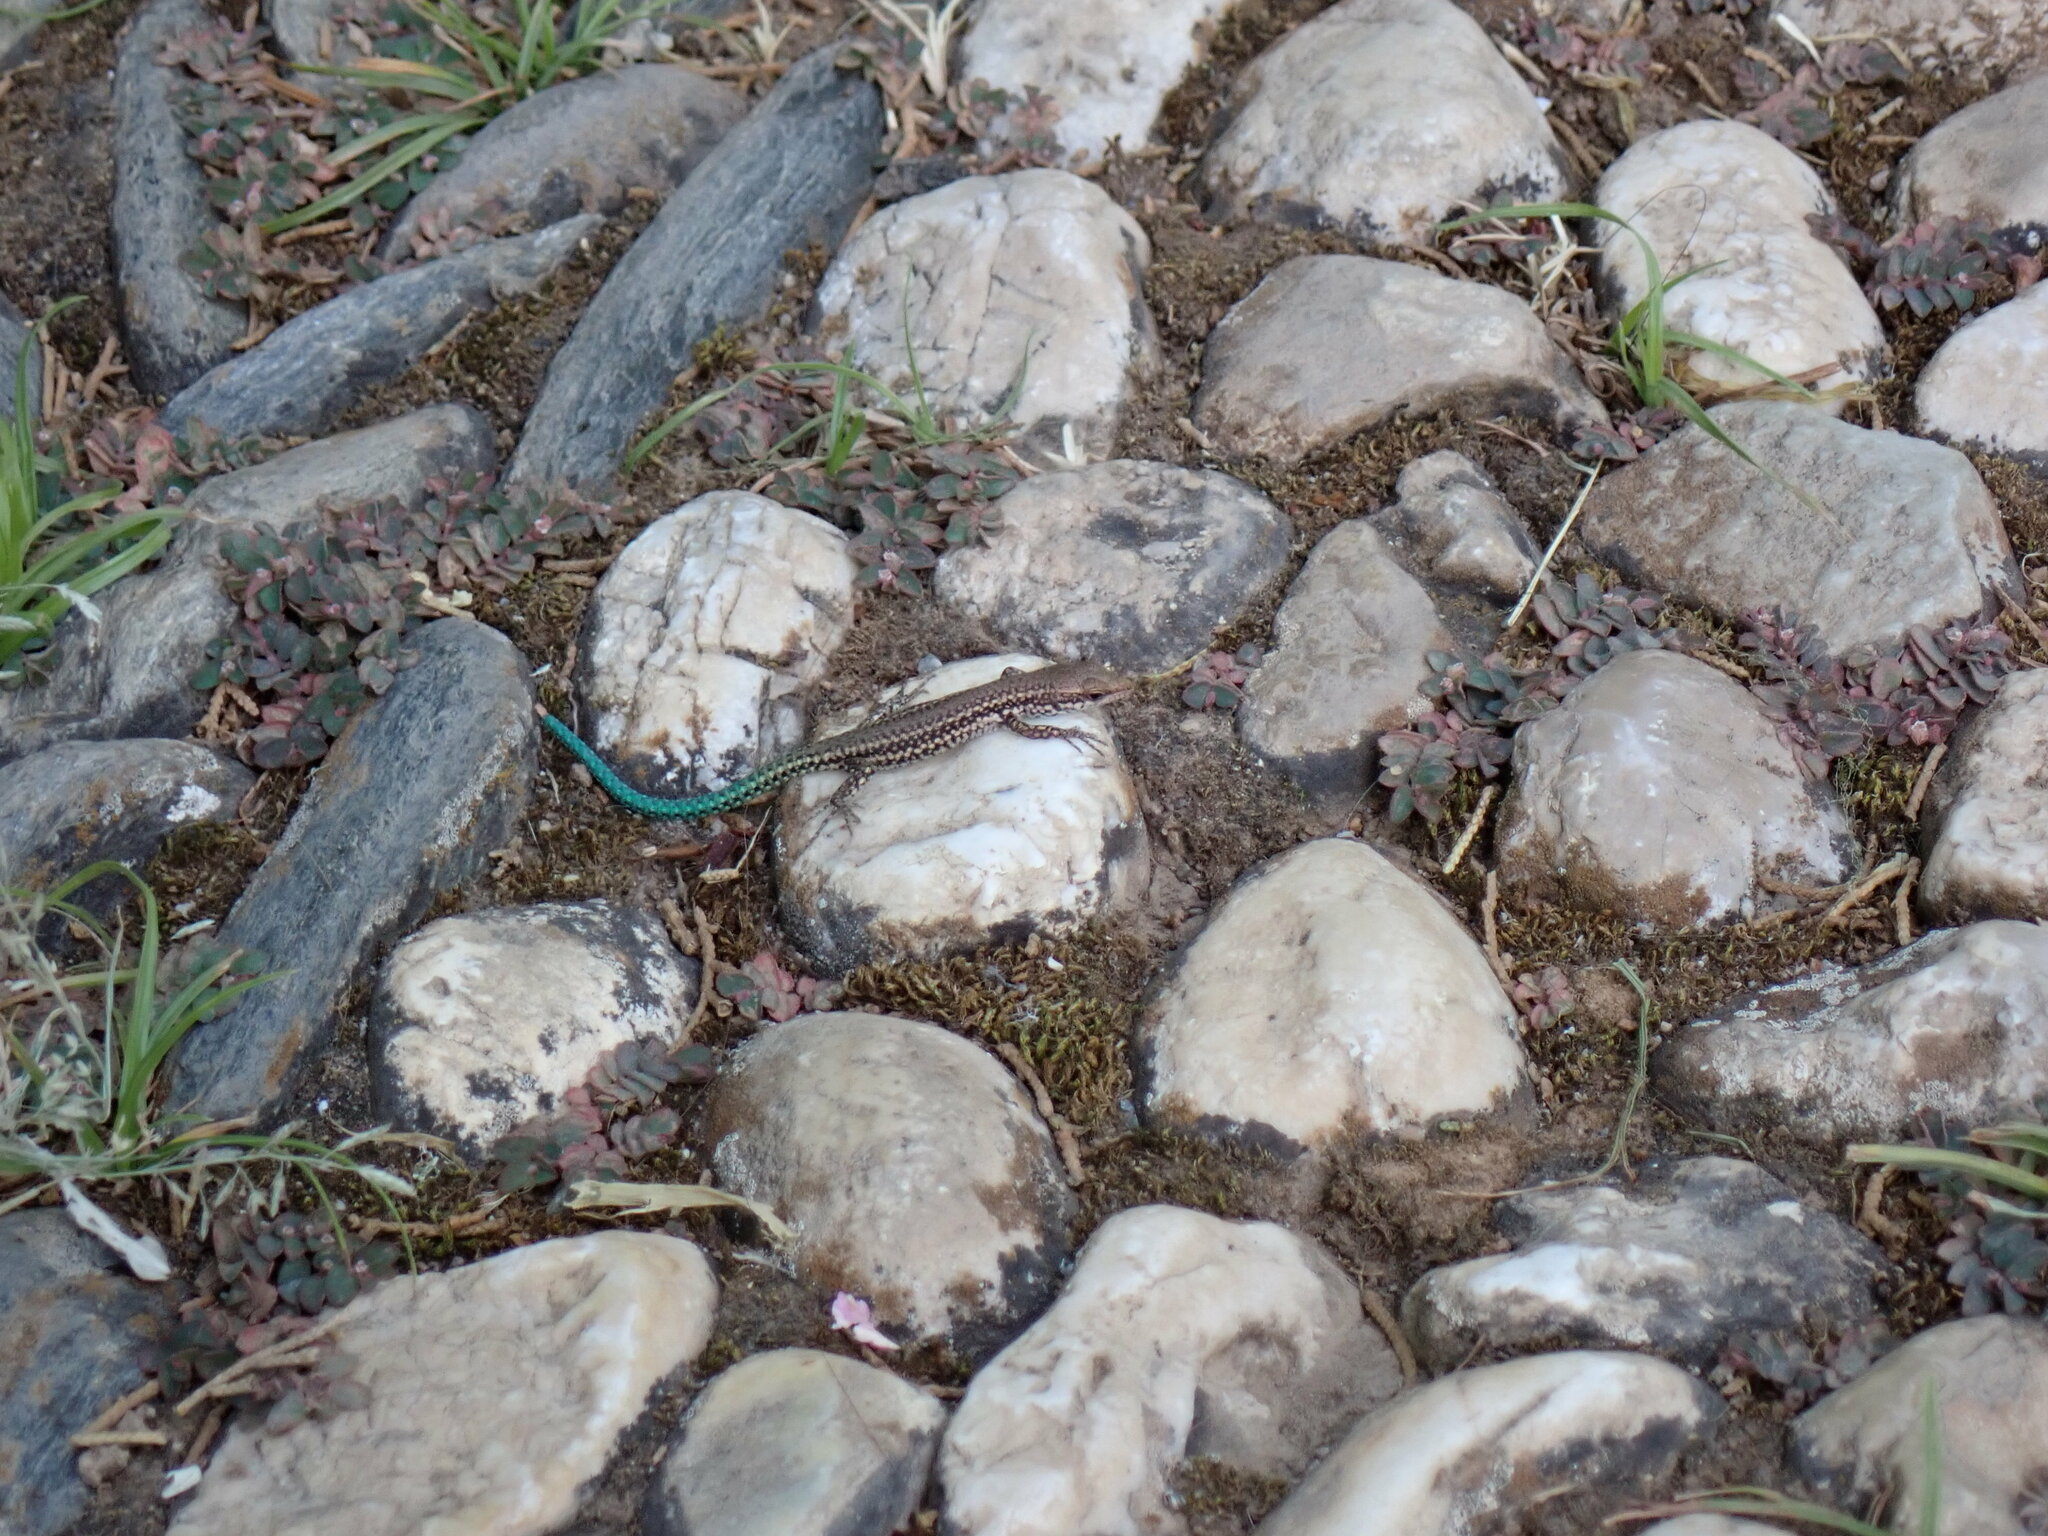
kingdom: Animalia
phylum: Chordata
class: Squamata
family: Lacertidae
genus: Podarcis
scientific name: Podarcis vaucheri
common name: Vaucher's wall lizard
